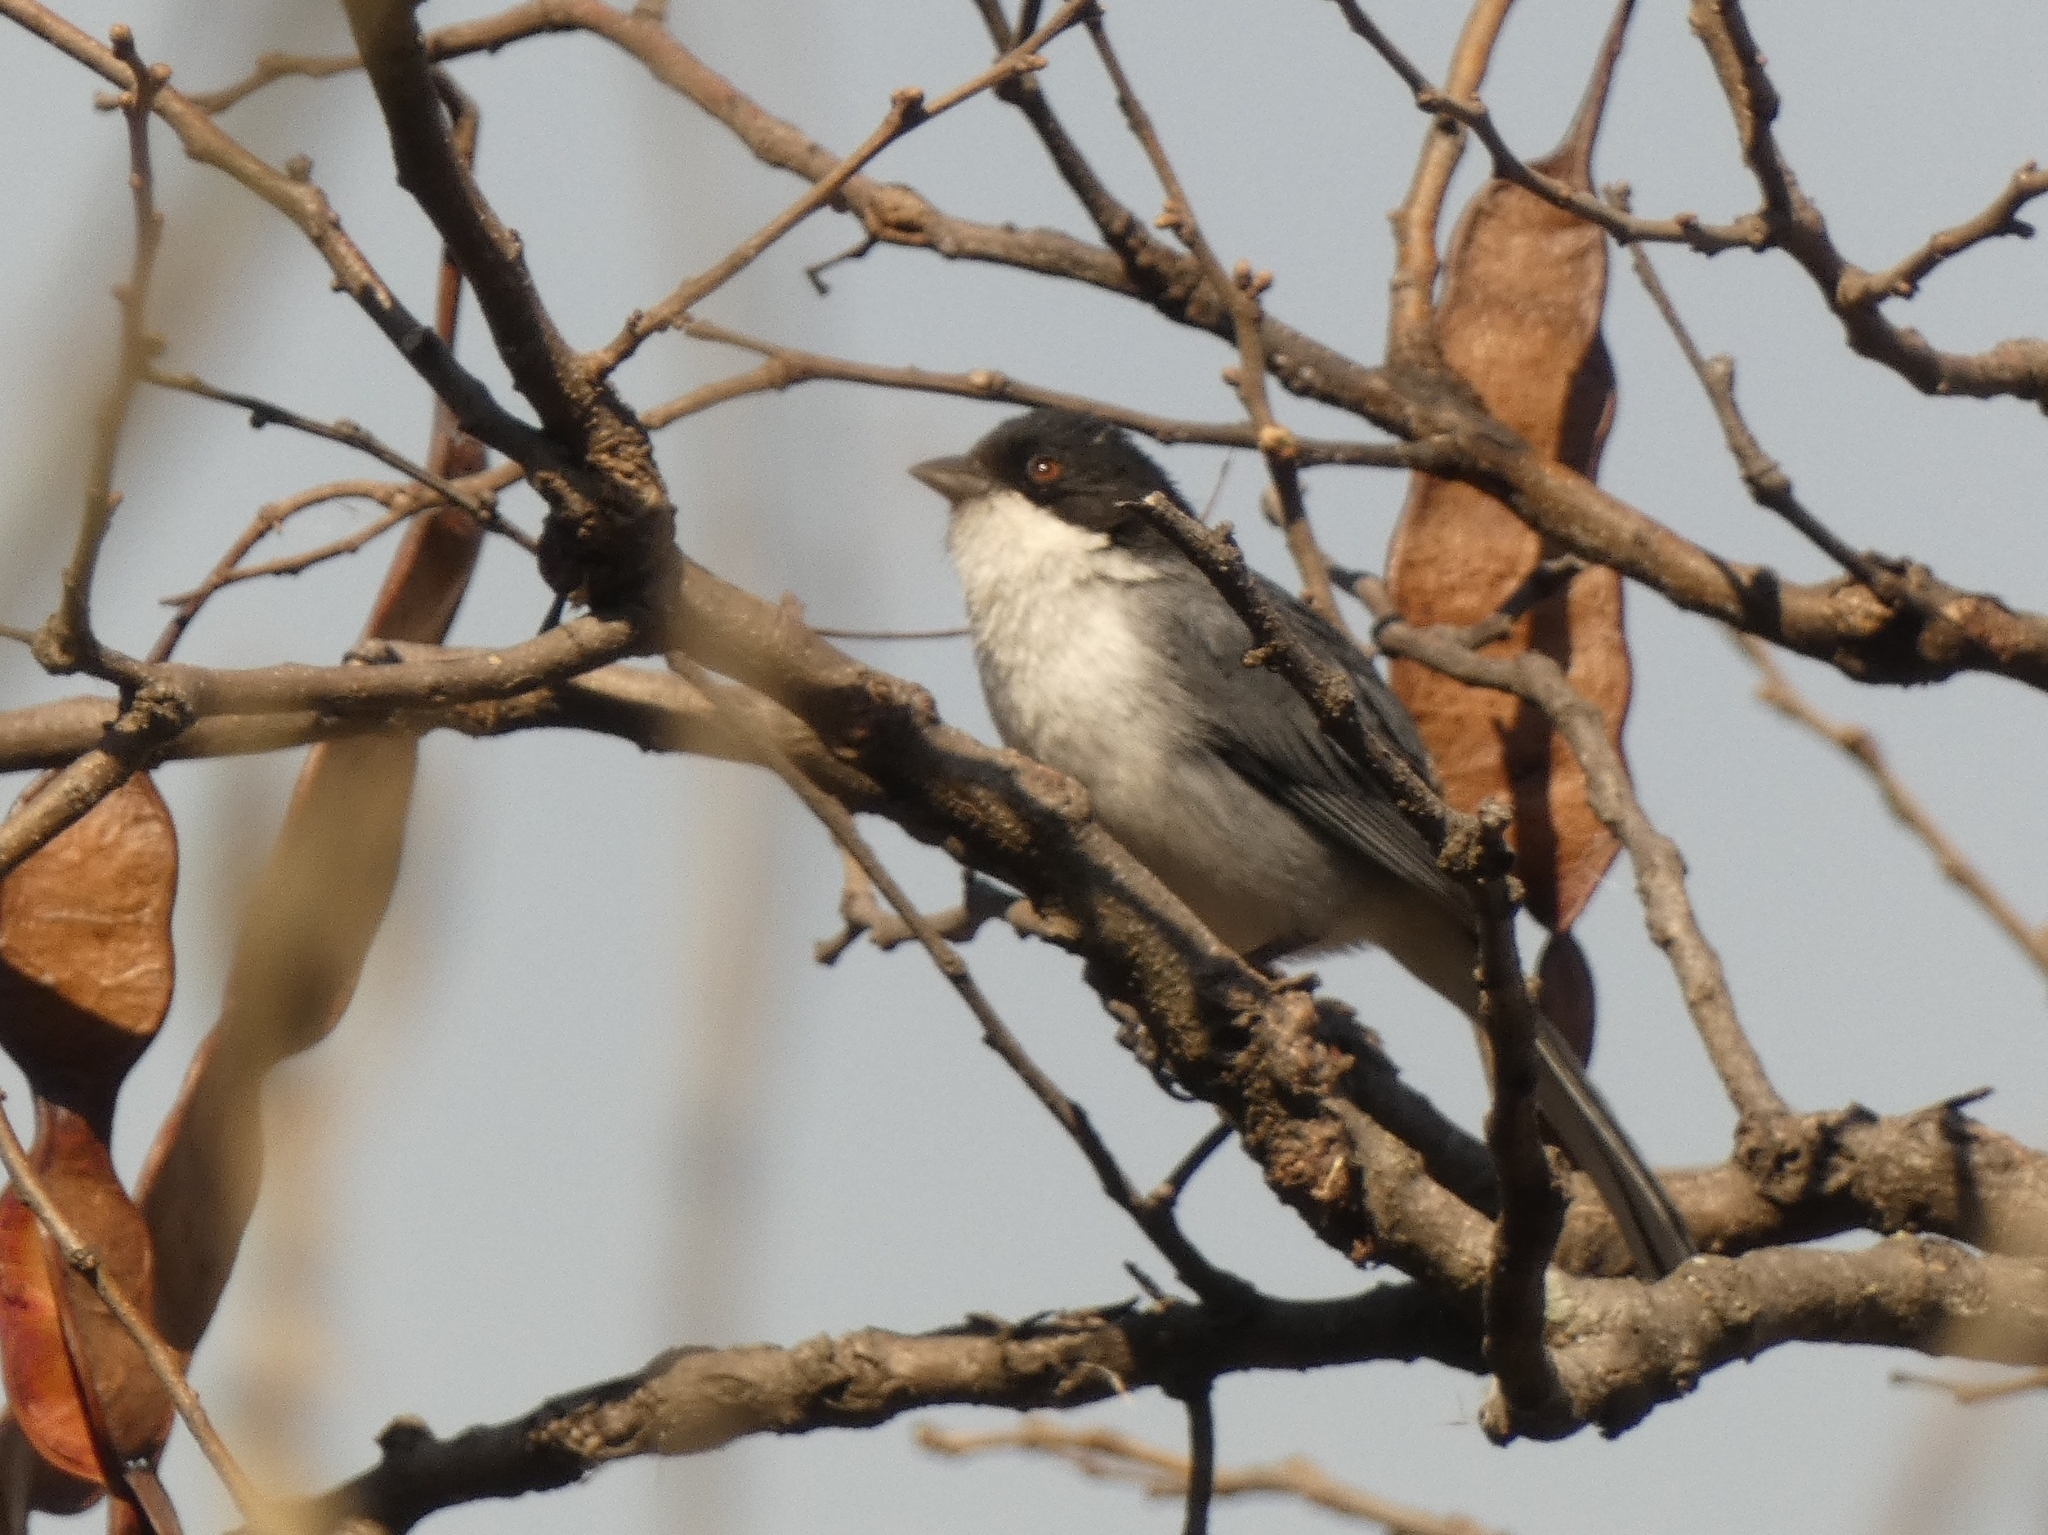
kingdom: Animalia
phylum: Chordata
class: Aves
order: Passeriformes
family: Thraupidae
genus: Microspingus
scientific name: Microspingus melanoleucus
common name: Black-capped warbling-finch
